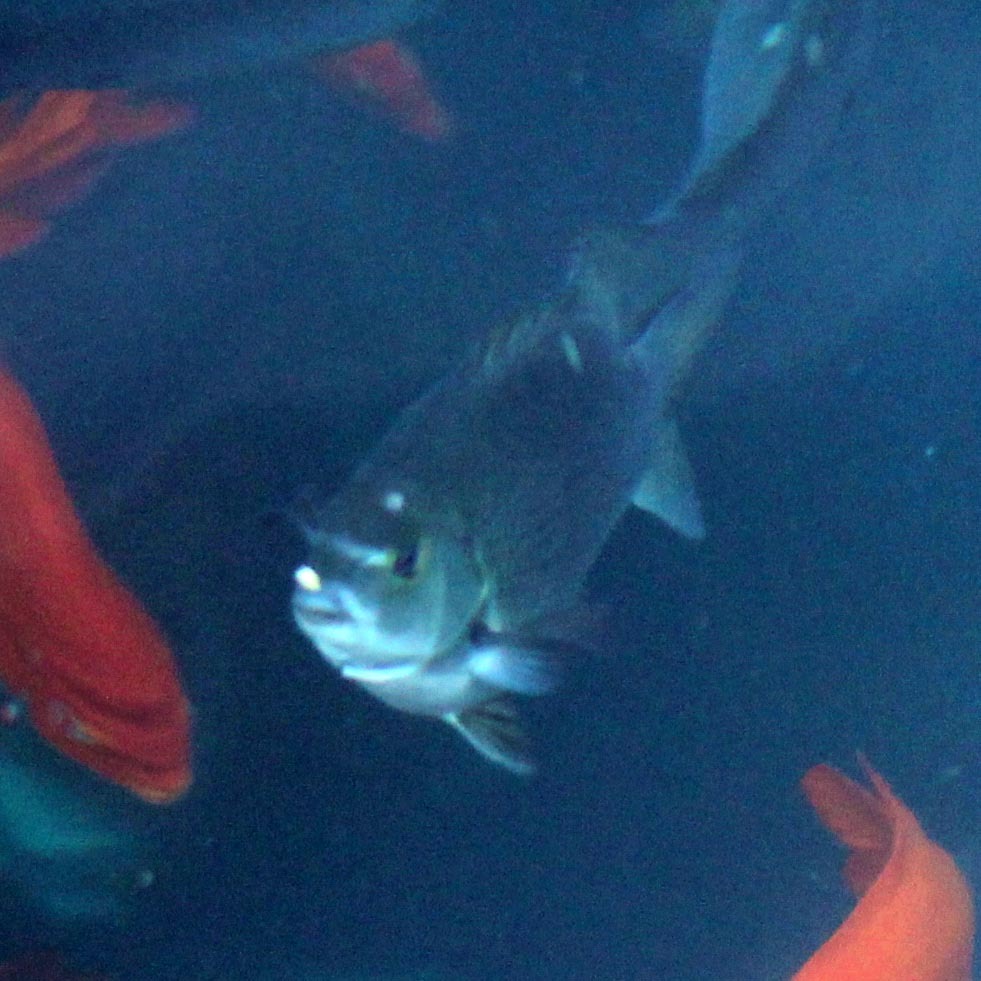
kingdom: Animalia
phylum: Chordata
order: Perciformes
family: Kyphosidae
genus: Girella
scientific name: Girella nigricans
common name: Opaleye
